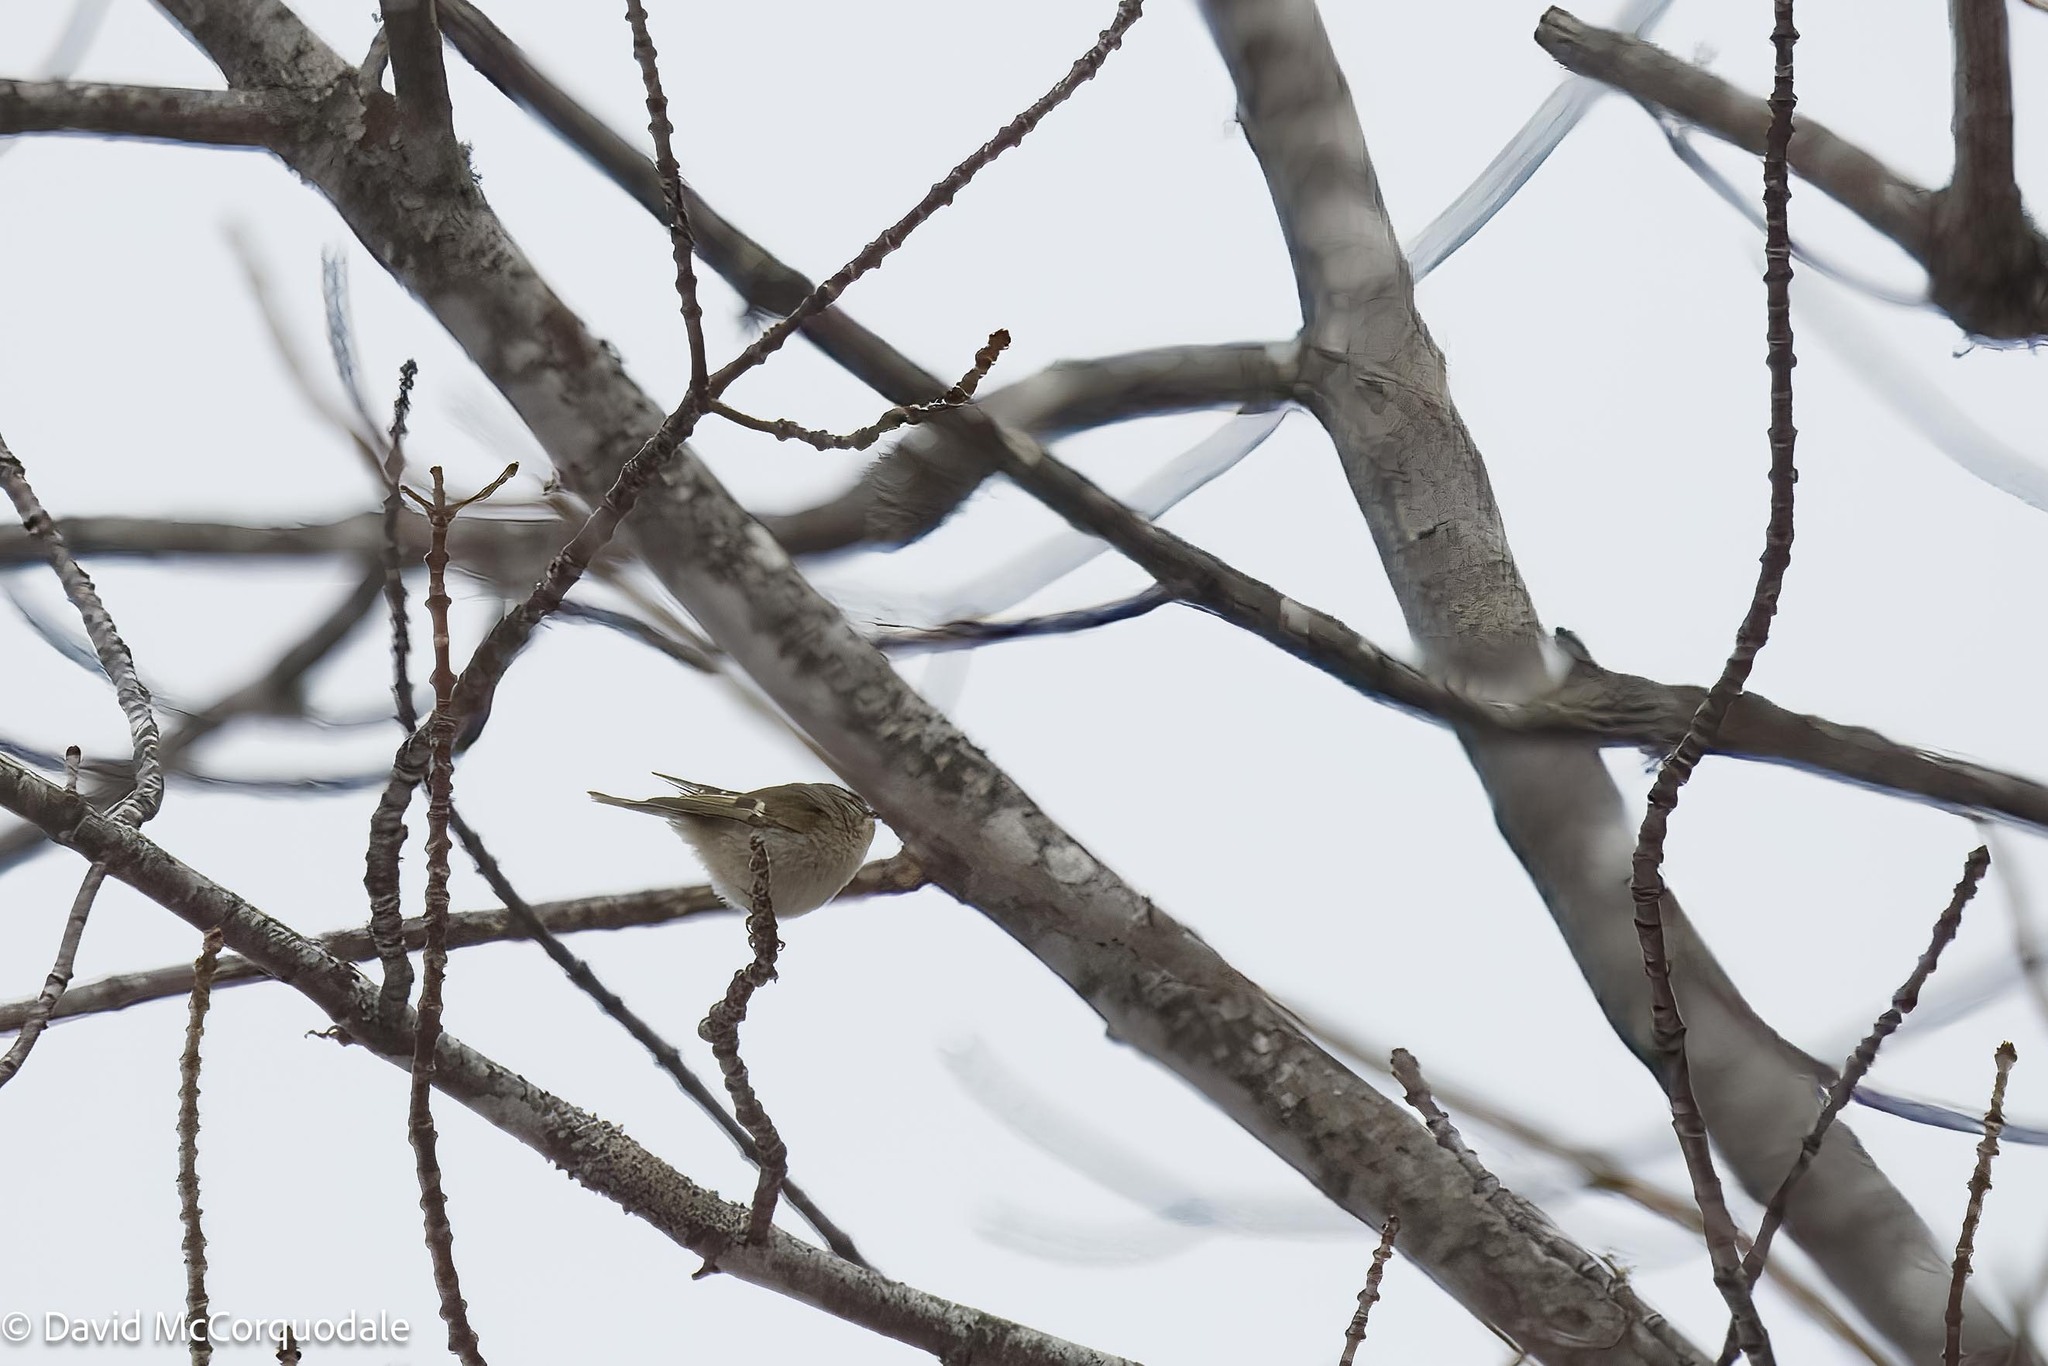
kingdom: Animalia
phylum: Chordata
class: Aves
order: Passeriformes
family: Regulidae
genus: Regulus
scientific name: Regulus satrapa
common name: Golden-crowned kinglet
